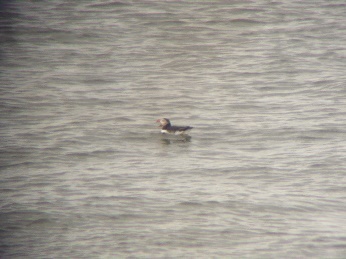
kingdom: Animalia
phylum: Chordata
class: Aves
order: Charadriiformes
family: Alcidae
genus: Fratercula
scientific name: Fratercula arctica
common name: Atlantic puffin
